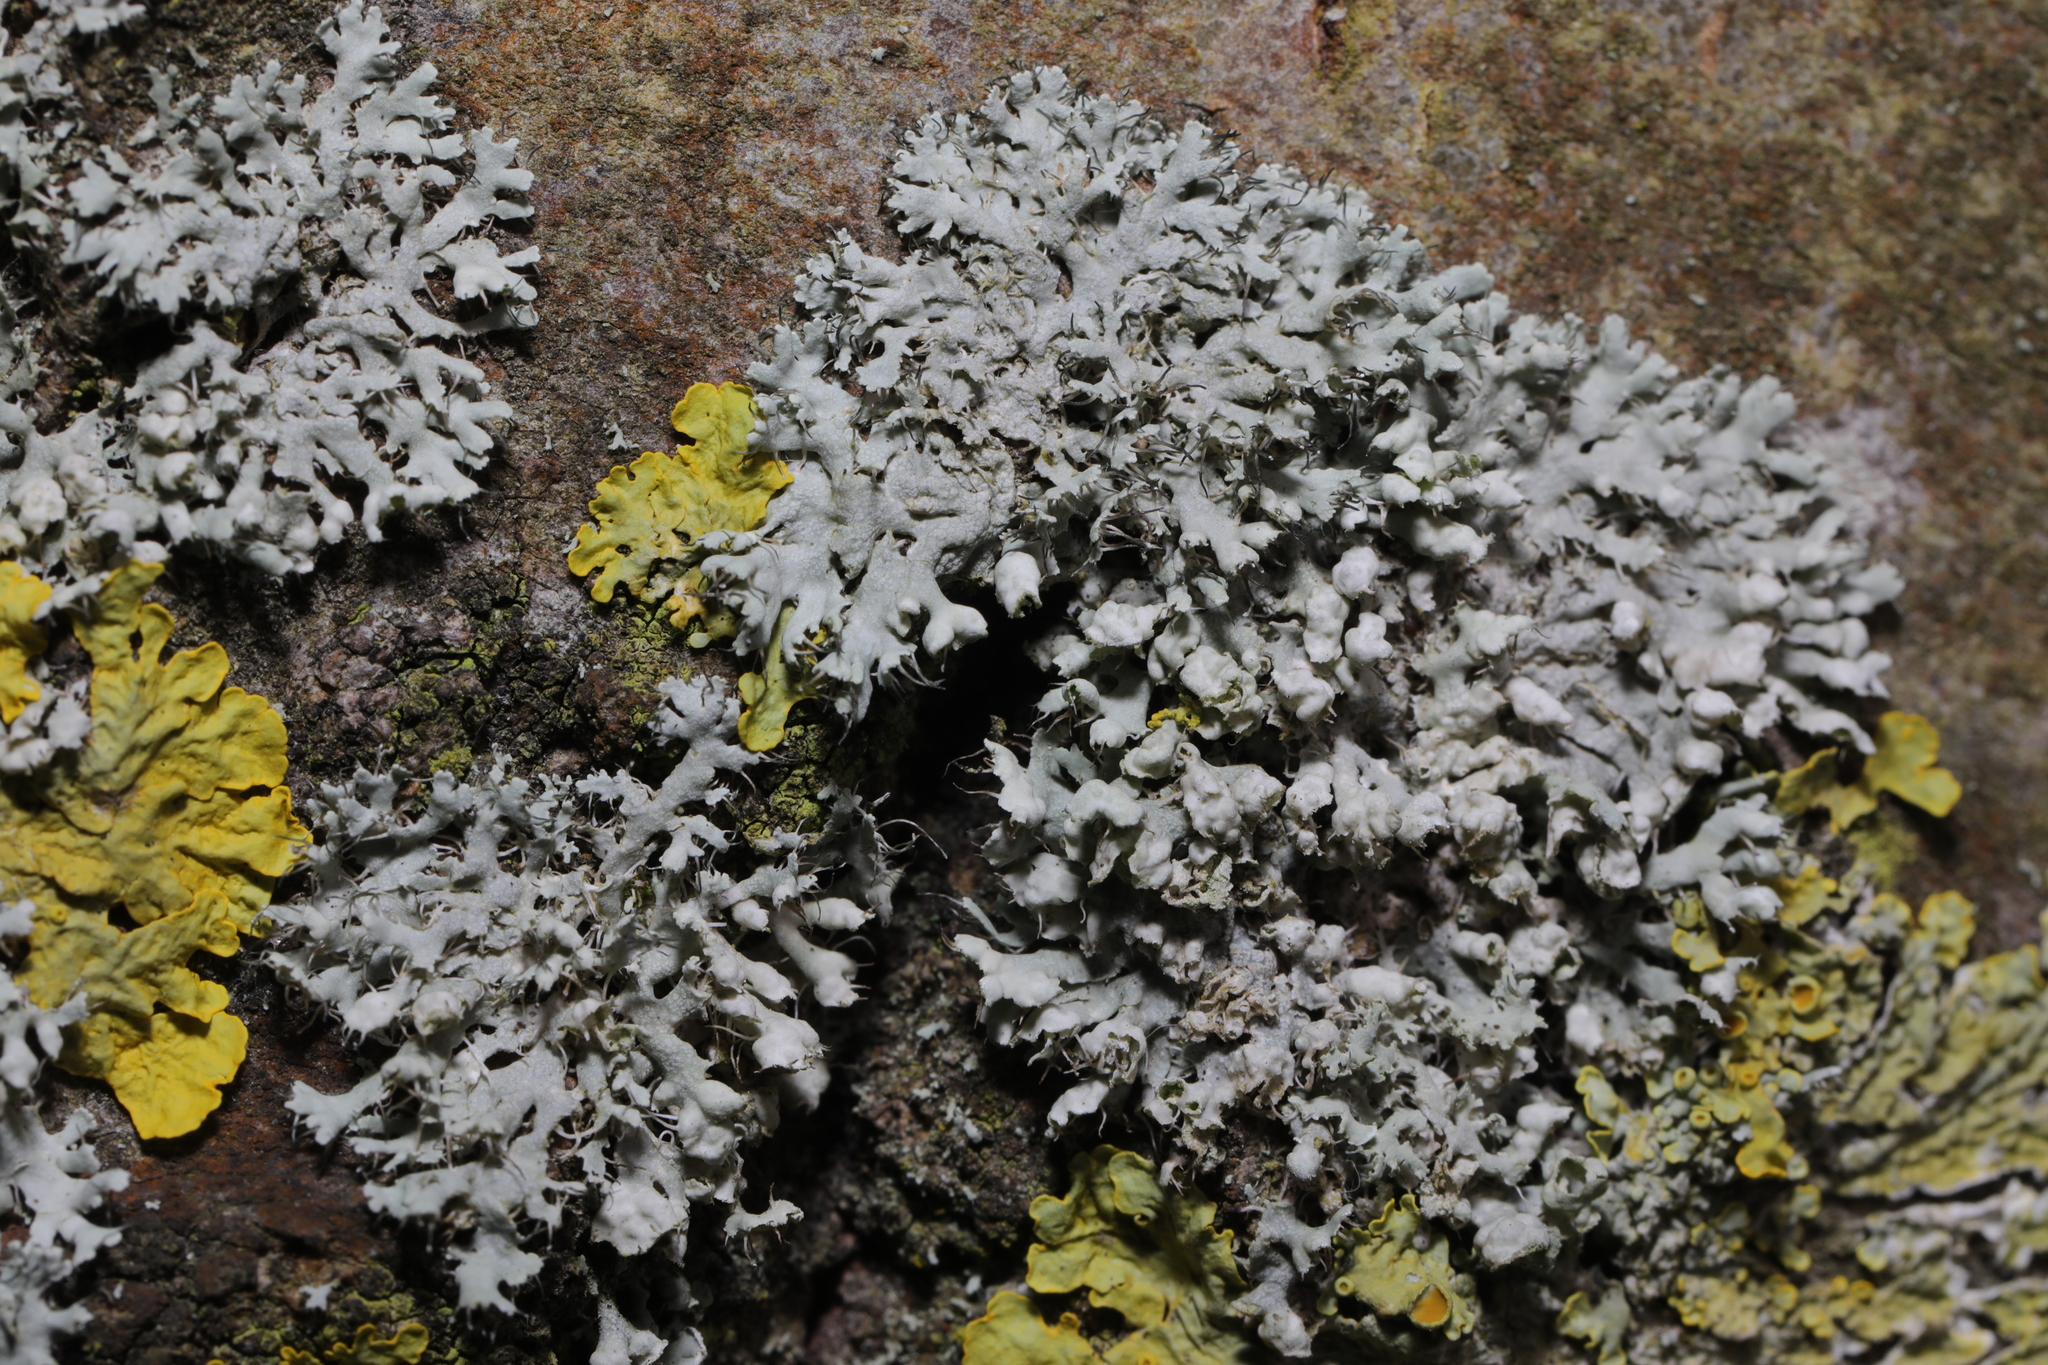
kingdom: Fungi
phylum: Ascomycota
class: Lecanoromycetes
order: Caliciales
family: Physciaceae
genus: Physcia
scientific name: Physcia adscendens
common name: Hooded rosette lichen
